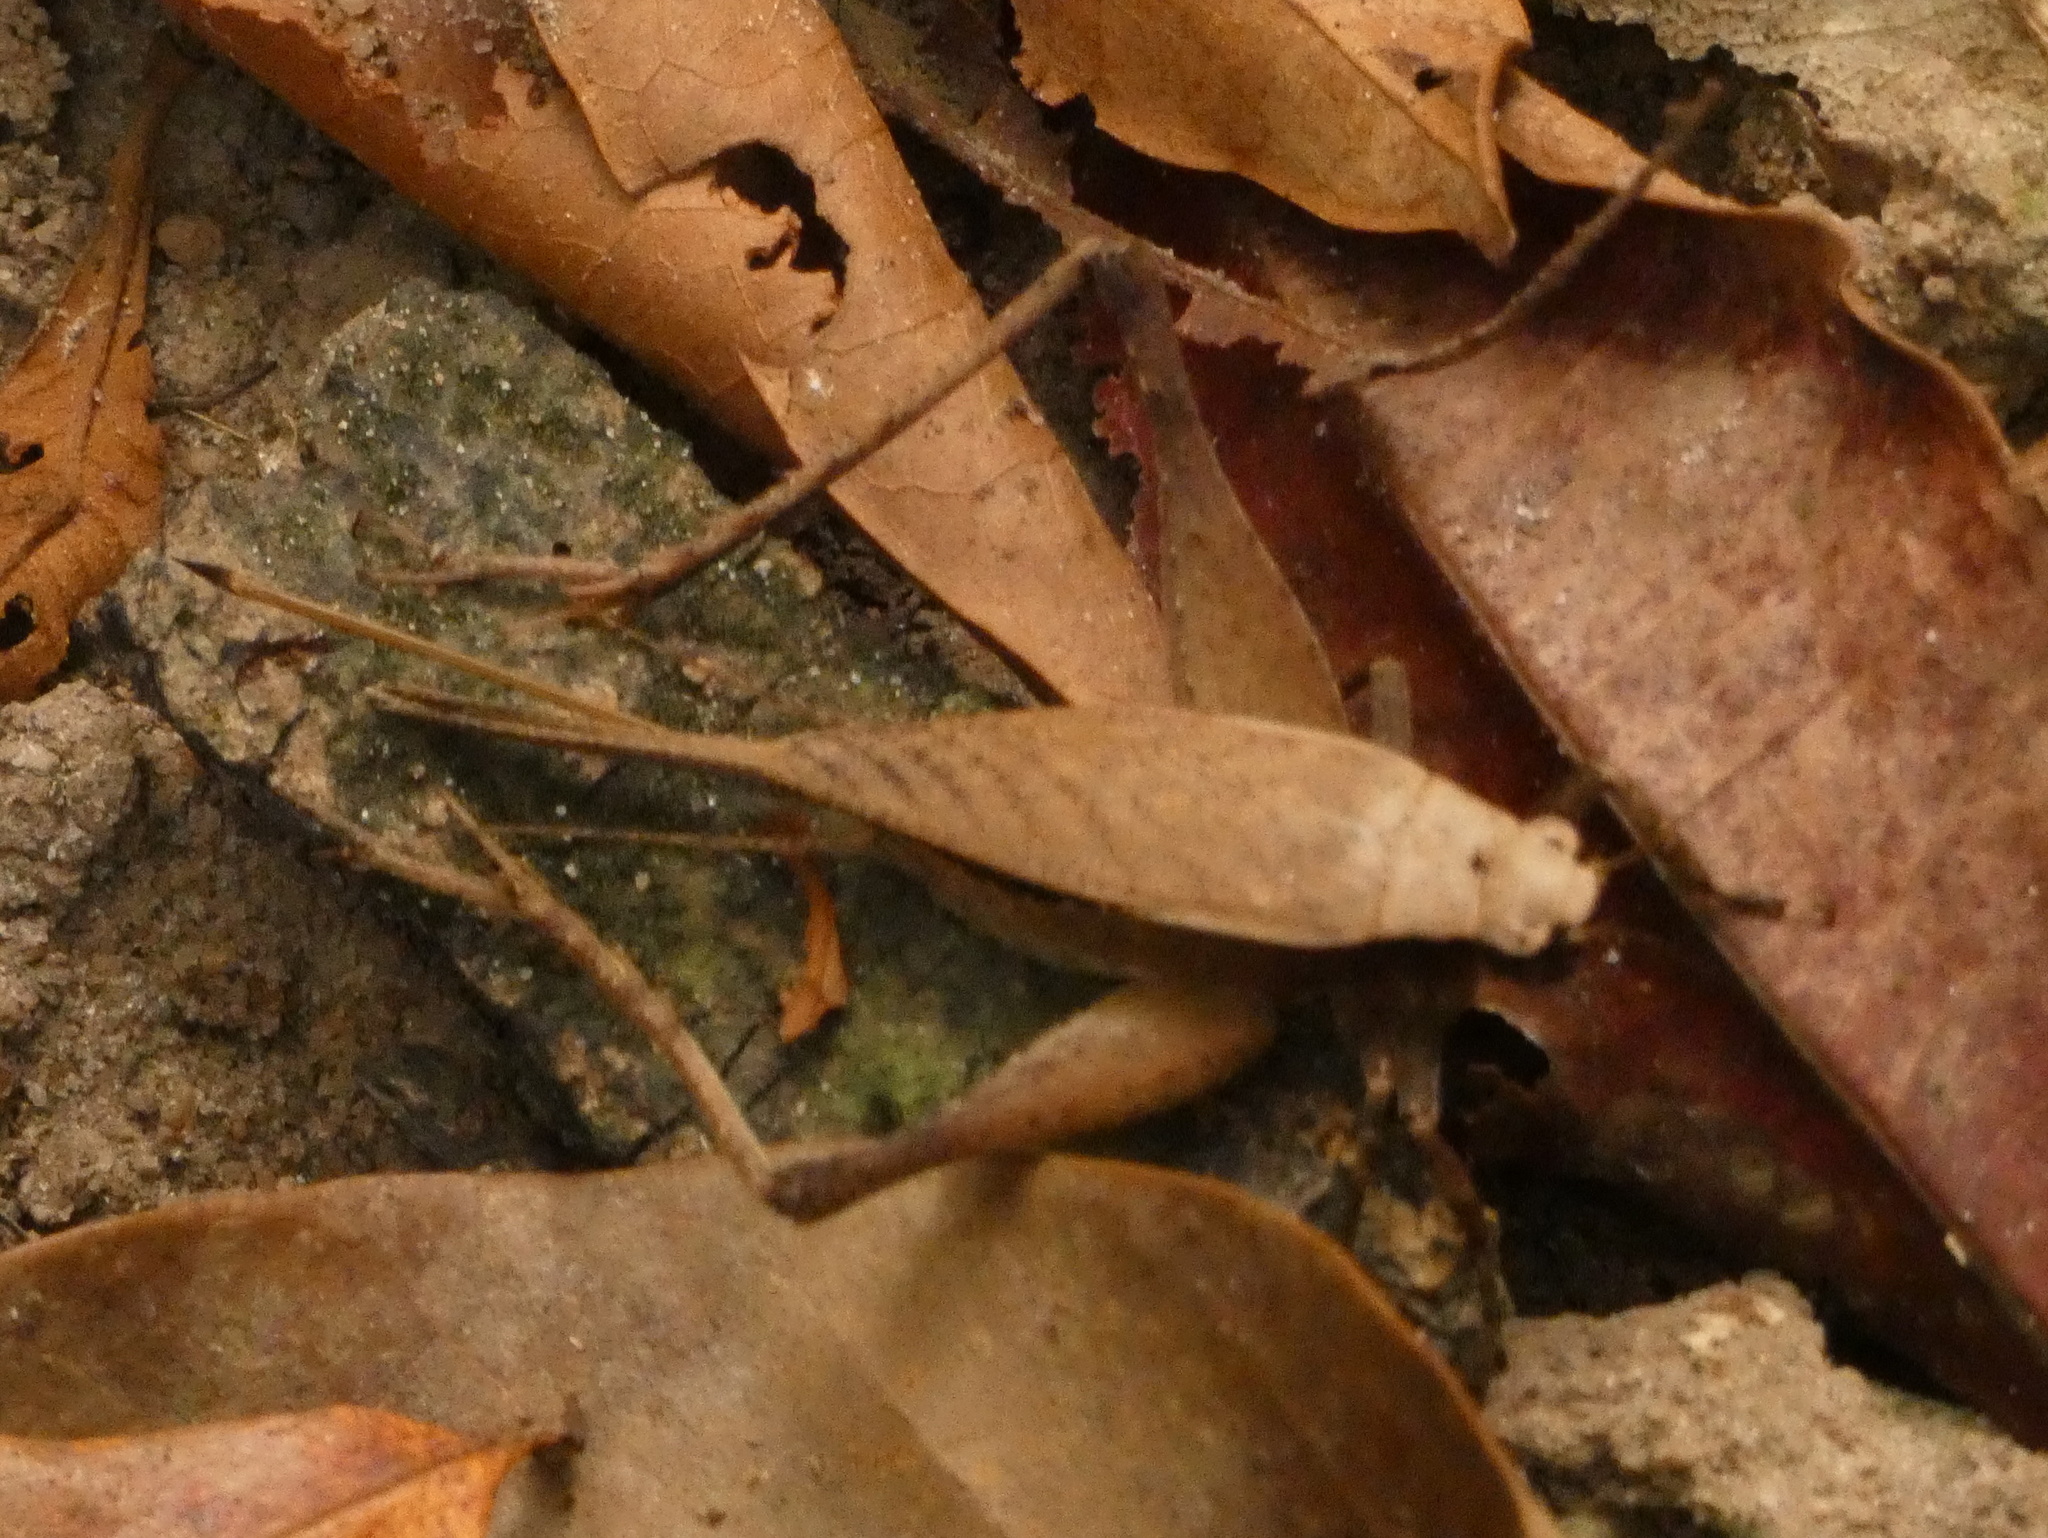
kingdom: Animalia
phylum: Arthropoda
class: Insecta
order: Orthoptera
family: Gryllidae
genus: Eneoptera
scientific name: Eneoptera surinamensis
